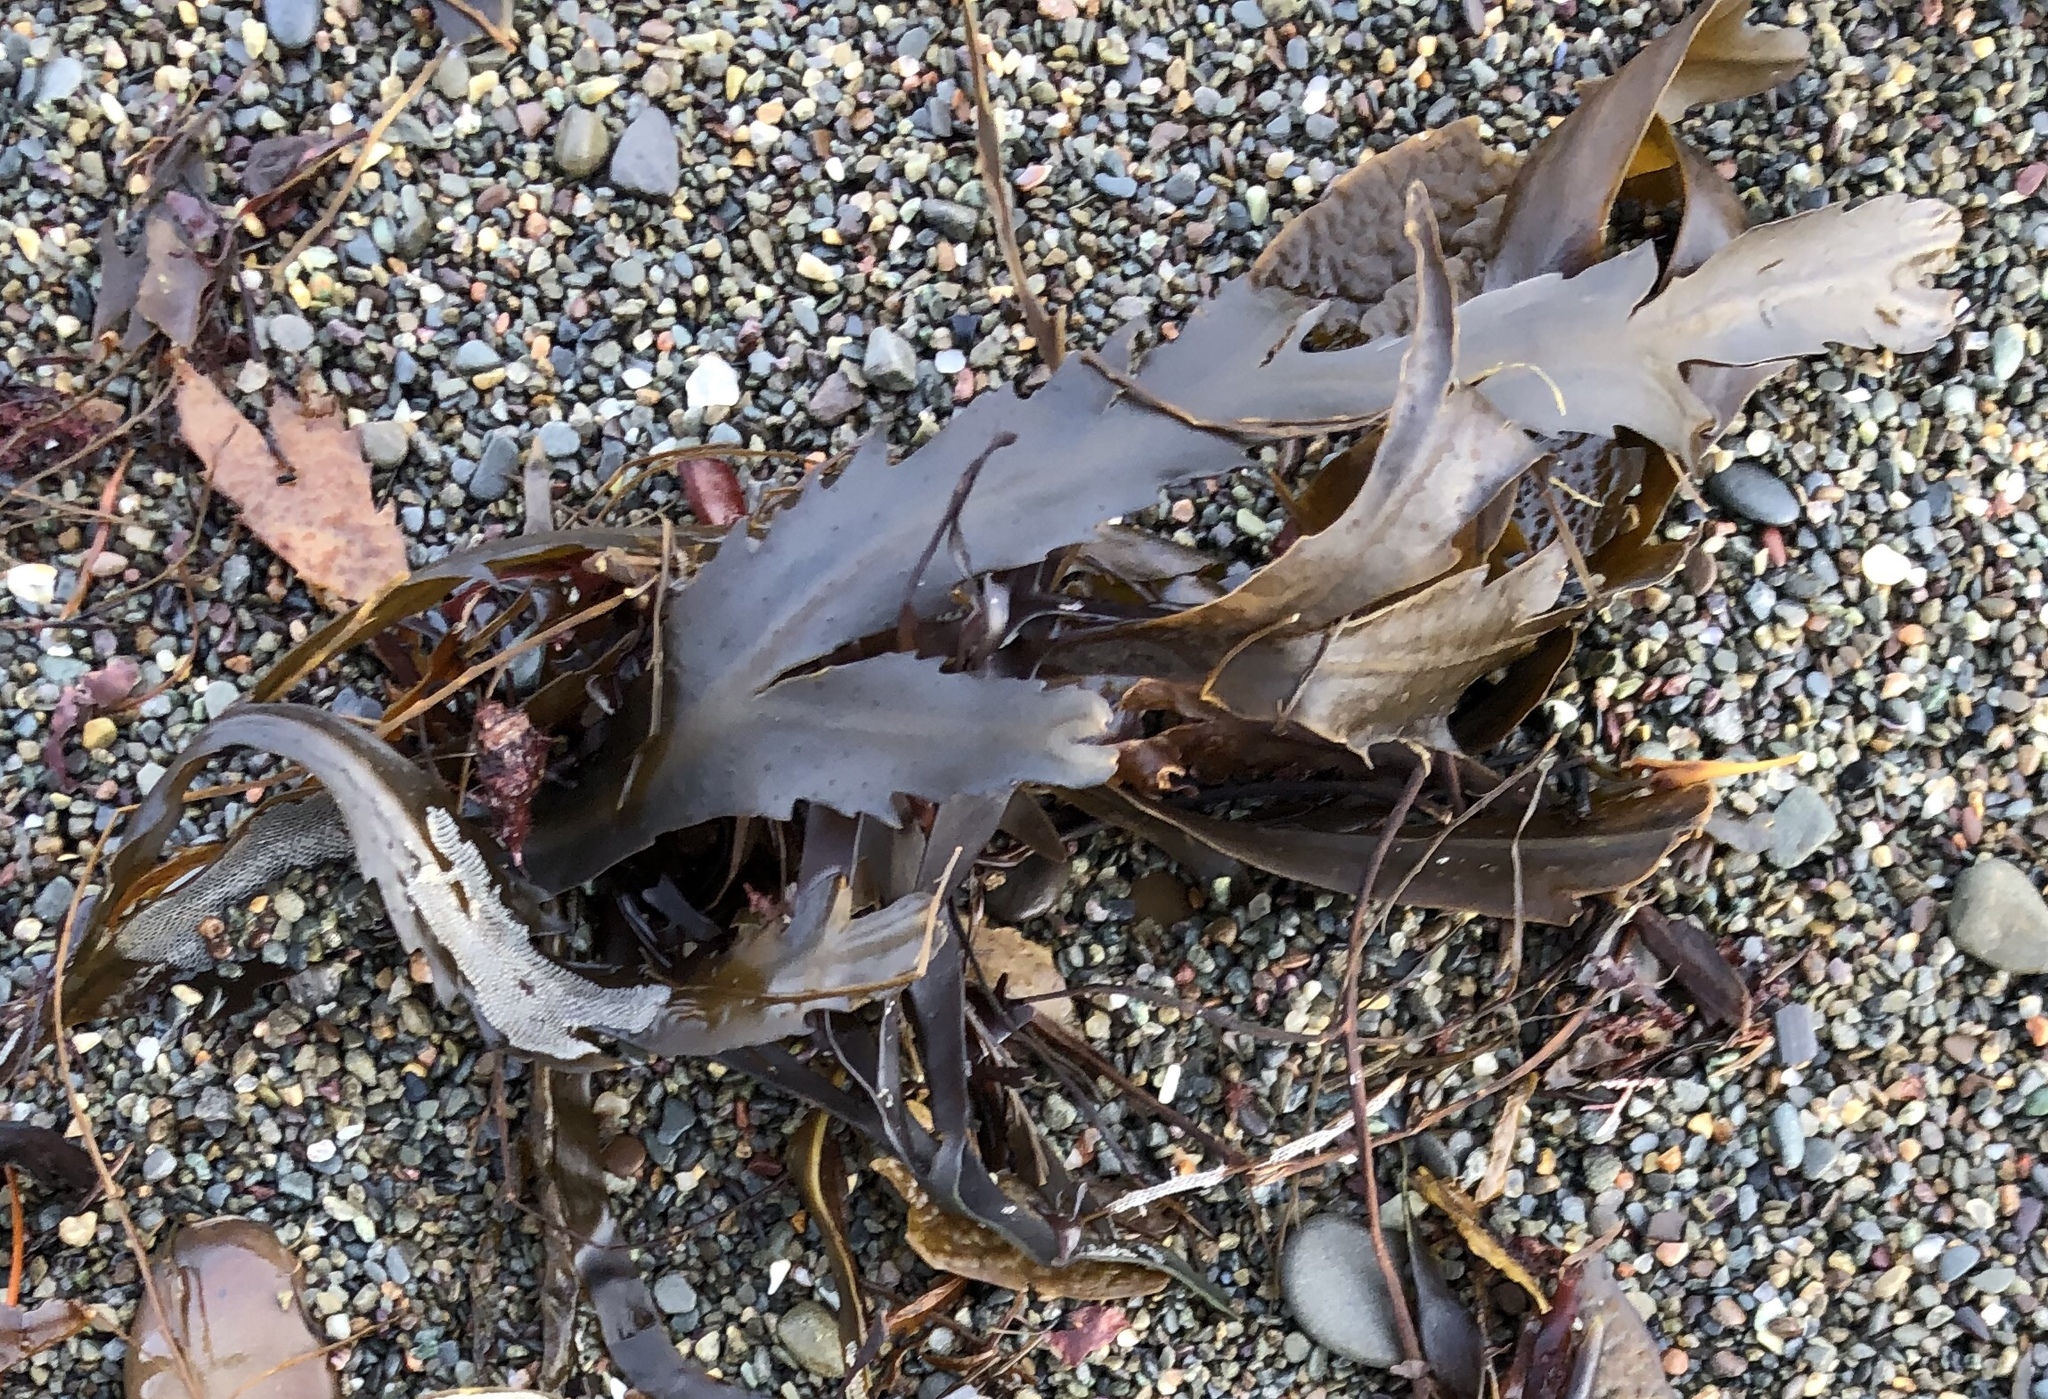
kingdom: Chromista
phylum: Ochrophyta
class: Phaeophyceae
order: Fucales
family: Fucaceae
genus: Fucus
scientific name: Fucus serratus
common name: Toothed wrack
